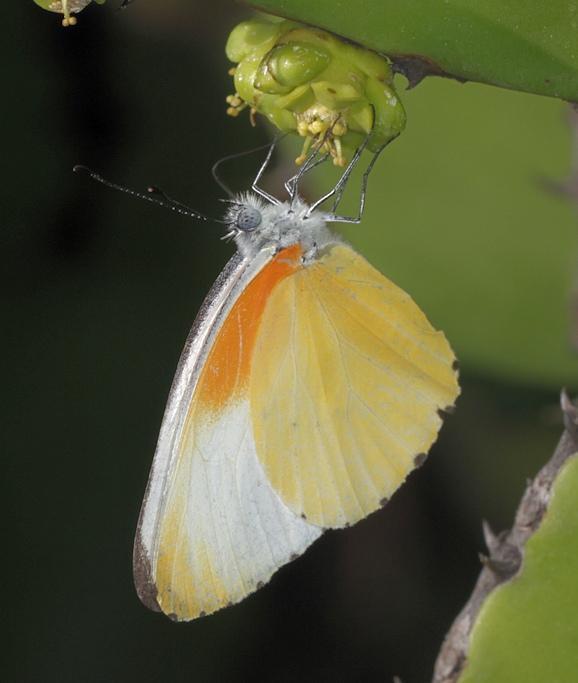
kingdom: Animalia
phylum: Arthropoda
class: Insecta
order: Lepidoptera
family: Pieridae
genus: Mylothris
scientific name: Mylothris agathina
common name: Eastern dotted border
